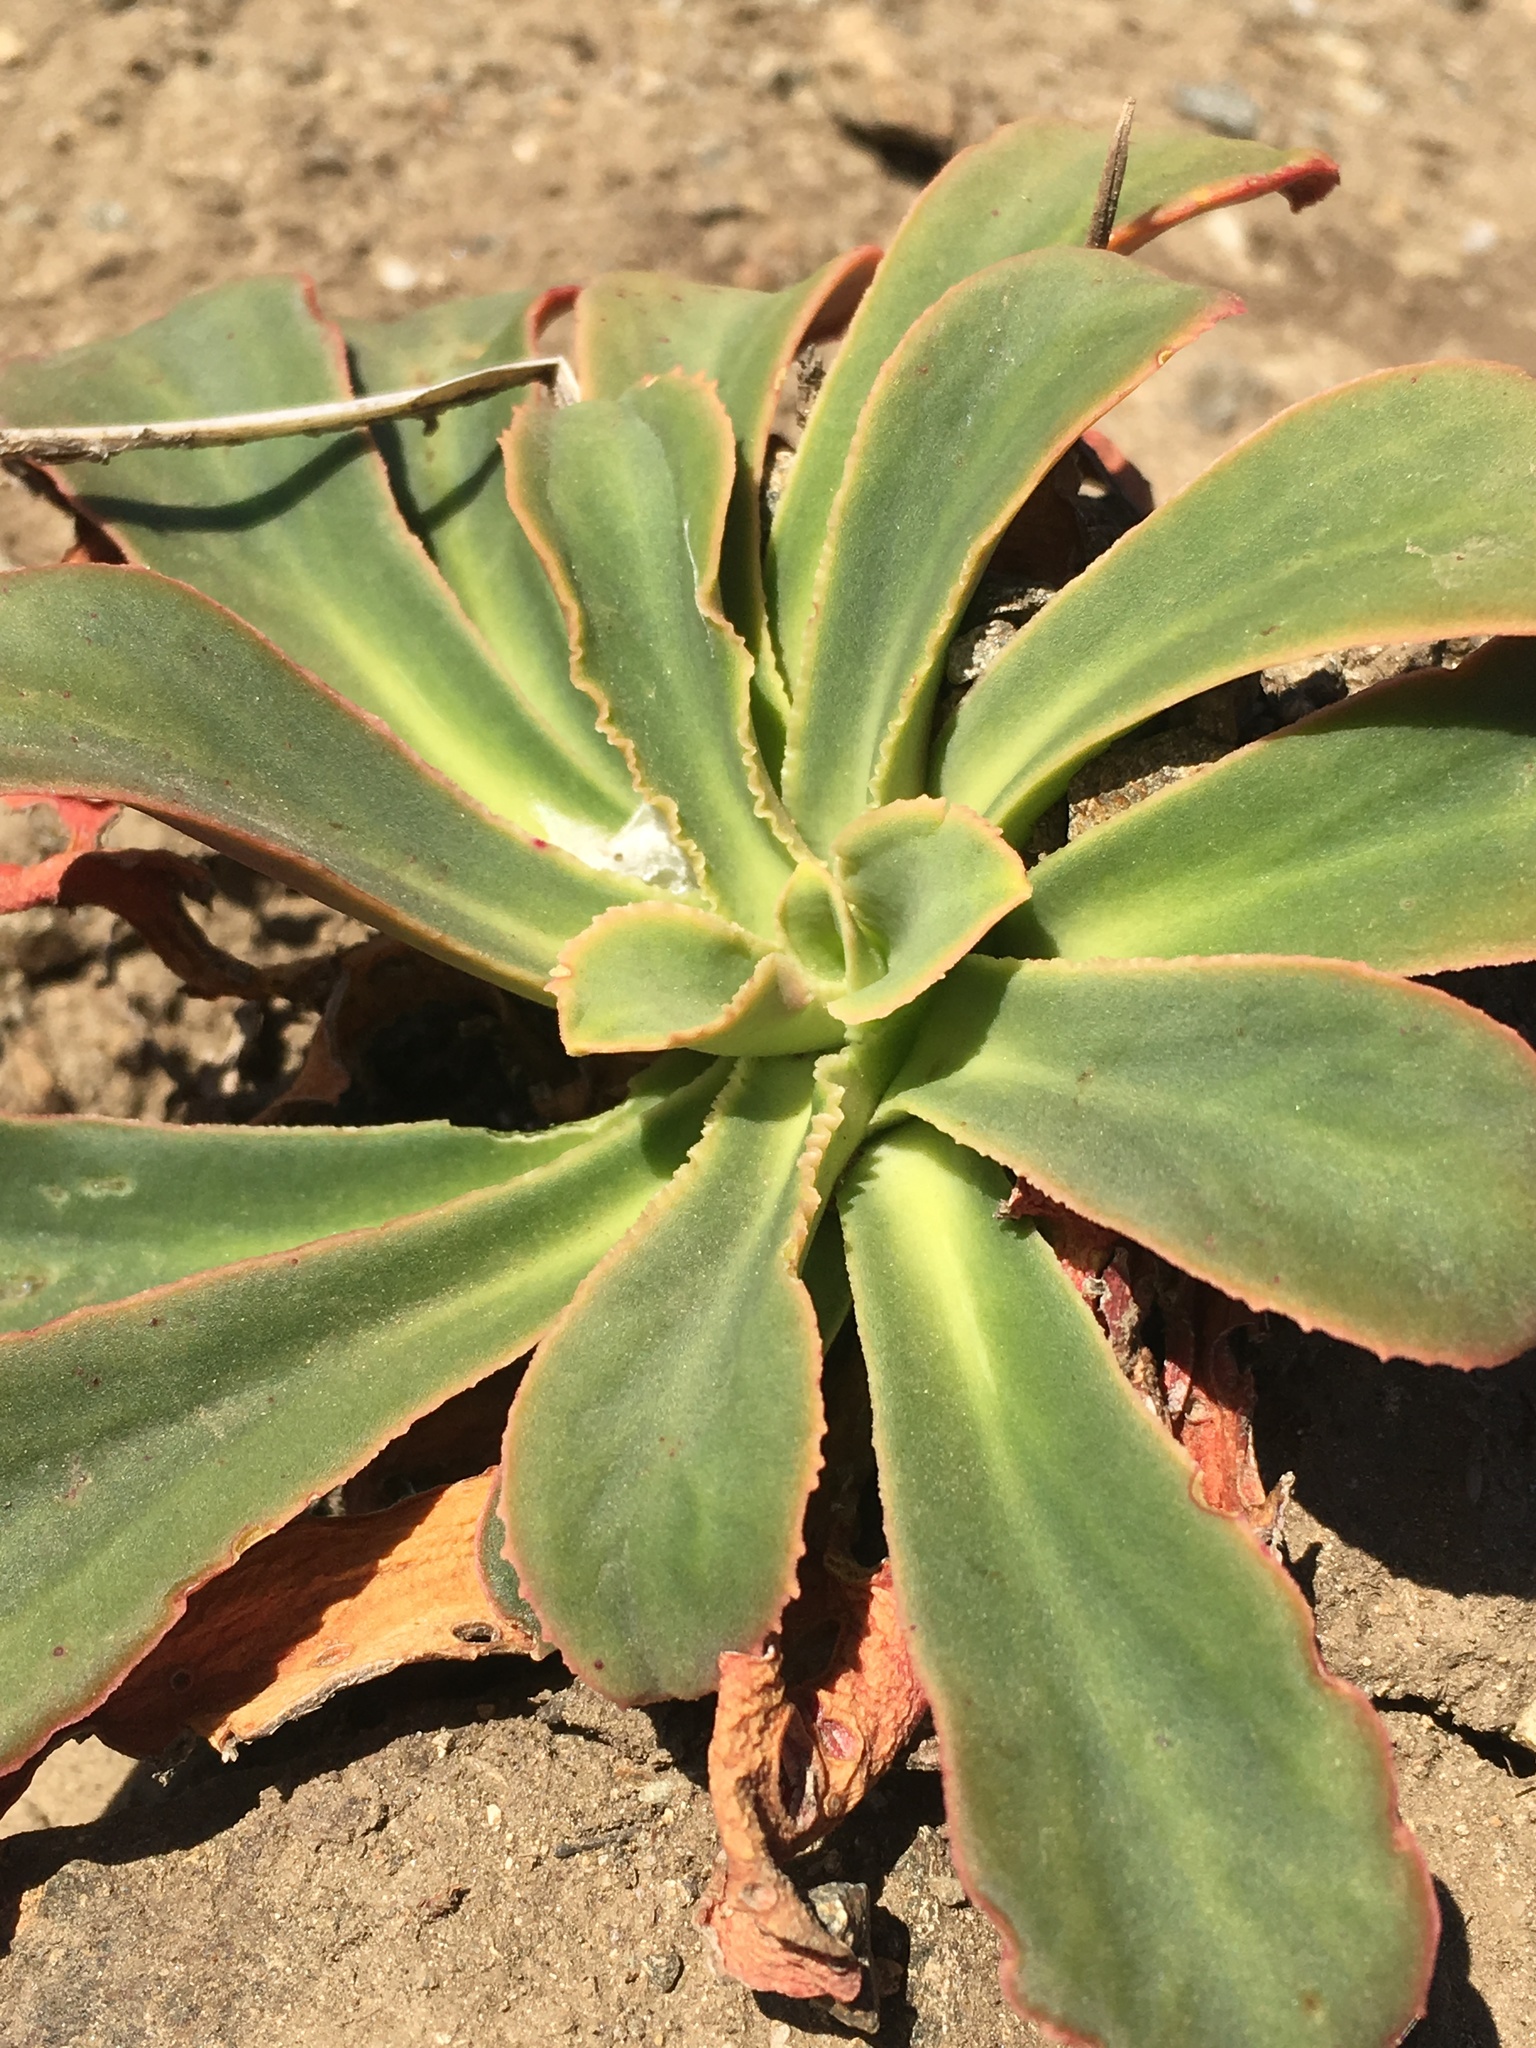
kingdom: Plantae
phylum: Tracheophyta
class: Magnoliopsida
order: Caryophyllales
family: Montiaceae
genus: Lewisia
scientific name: Lewisia cotyledon
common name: Siskiyou lewisia
